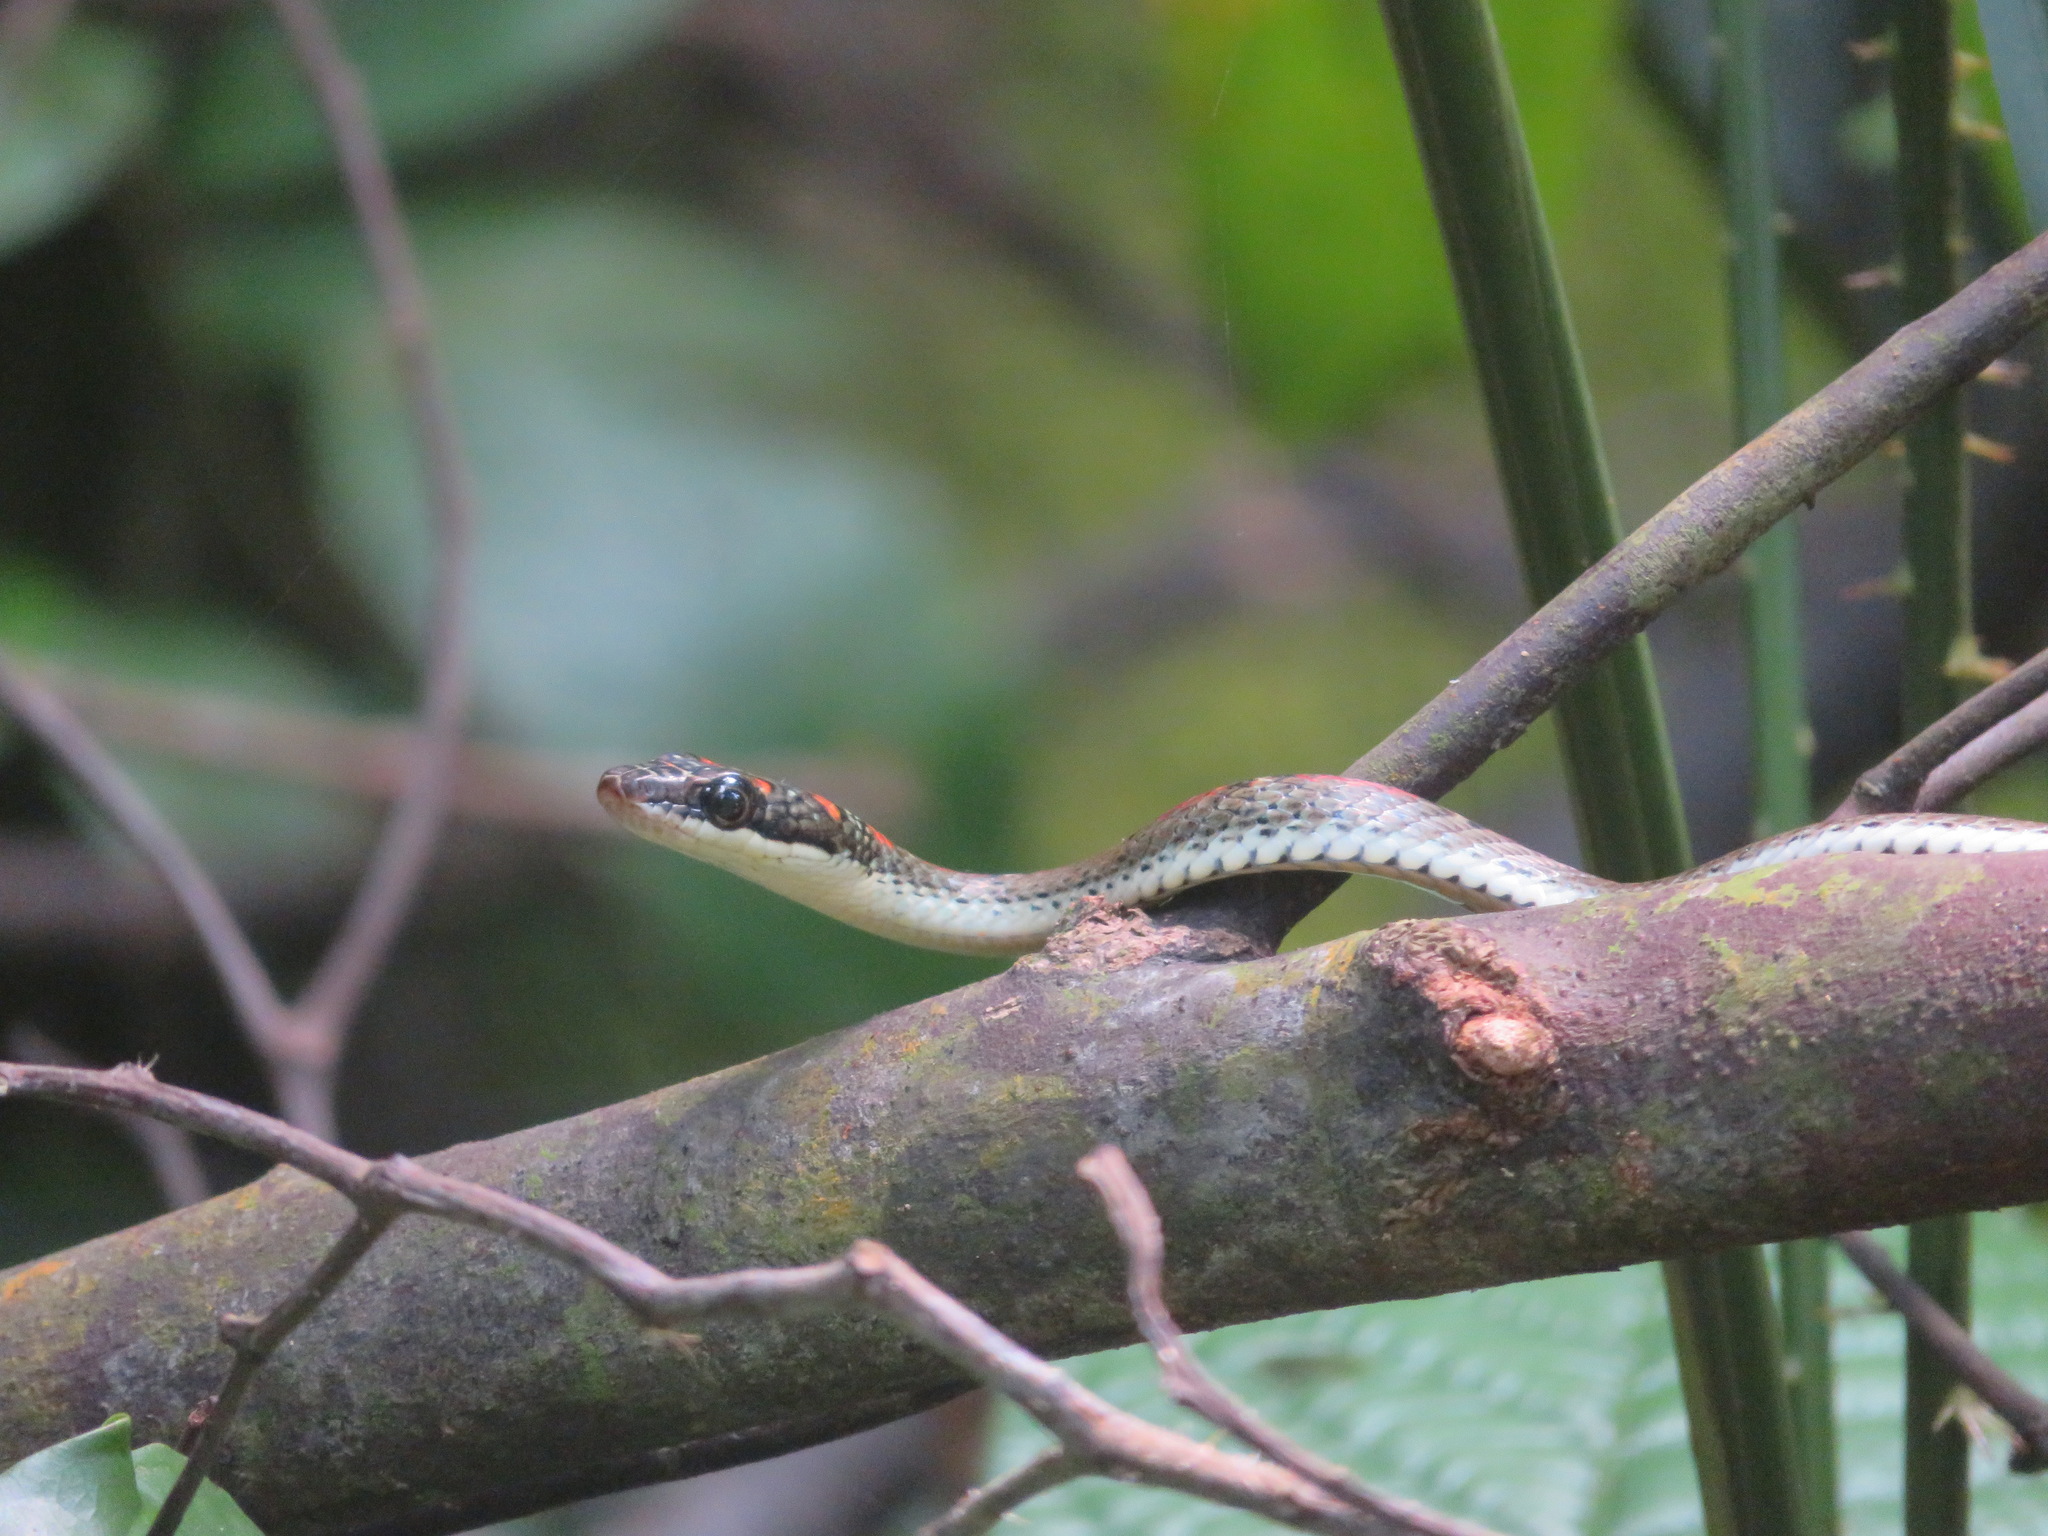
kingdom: Animalia
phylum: Chordata
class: Squamata
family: Colubridae
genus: Chrysopelea
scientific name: Chrysopelea pelias
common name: Twin-barred tree snake
